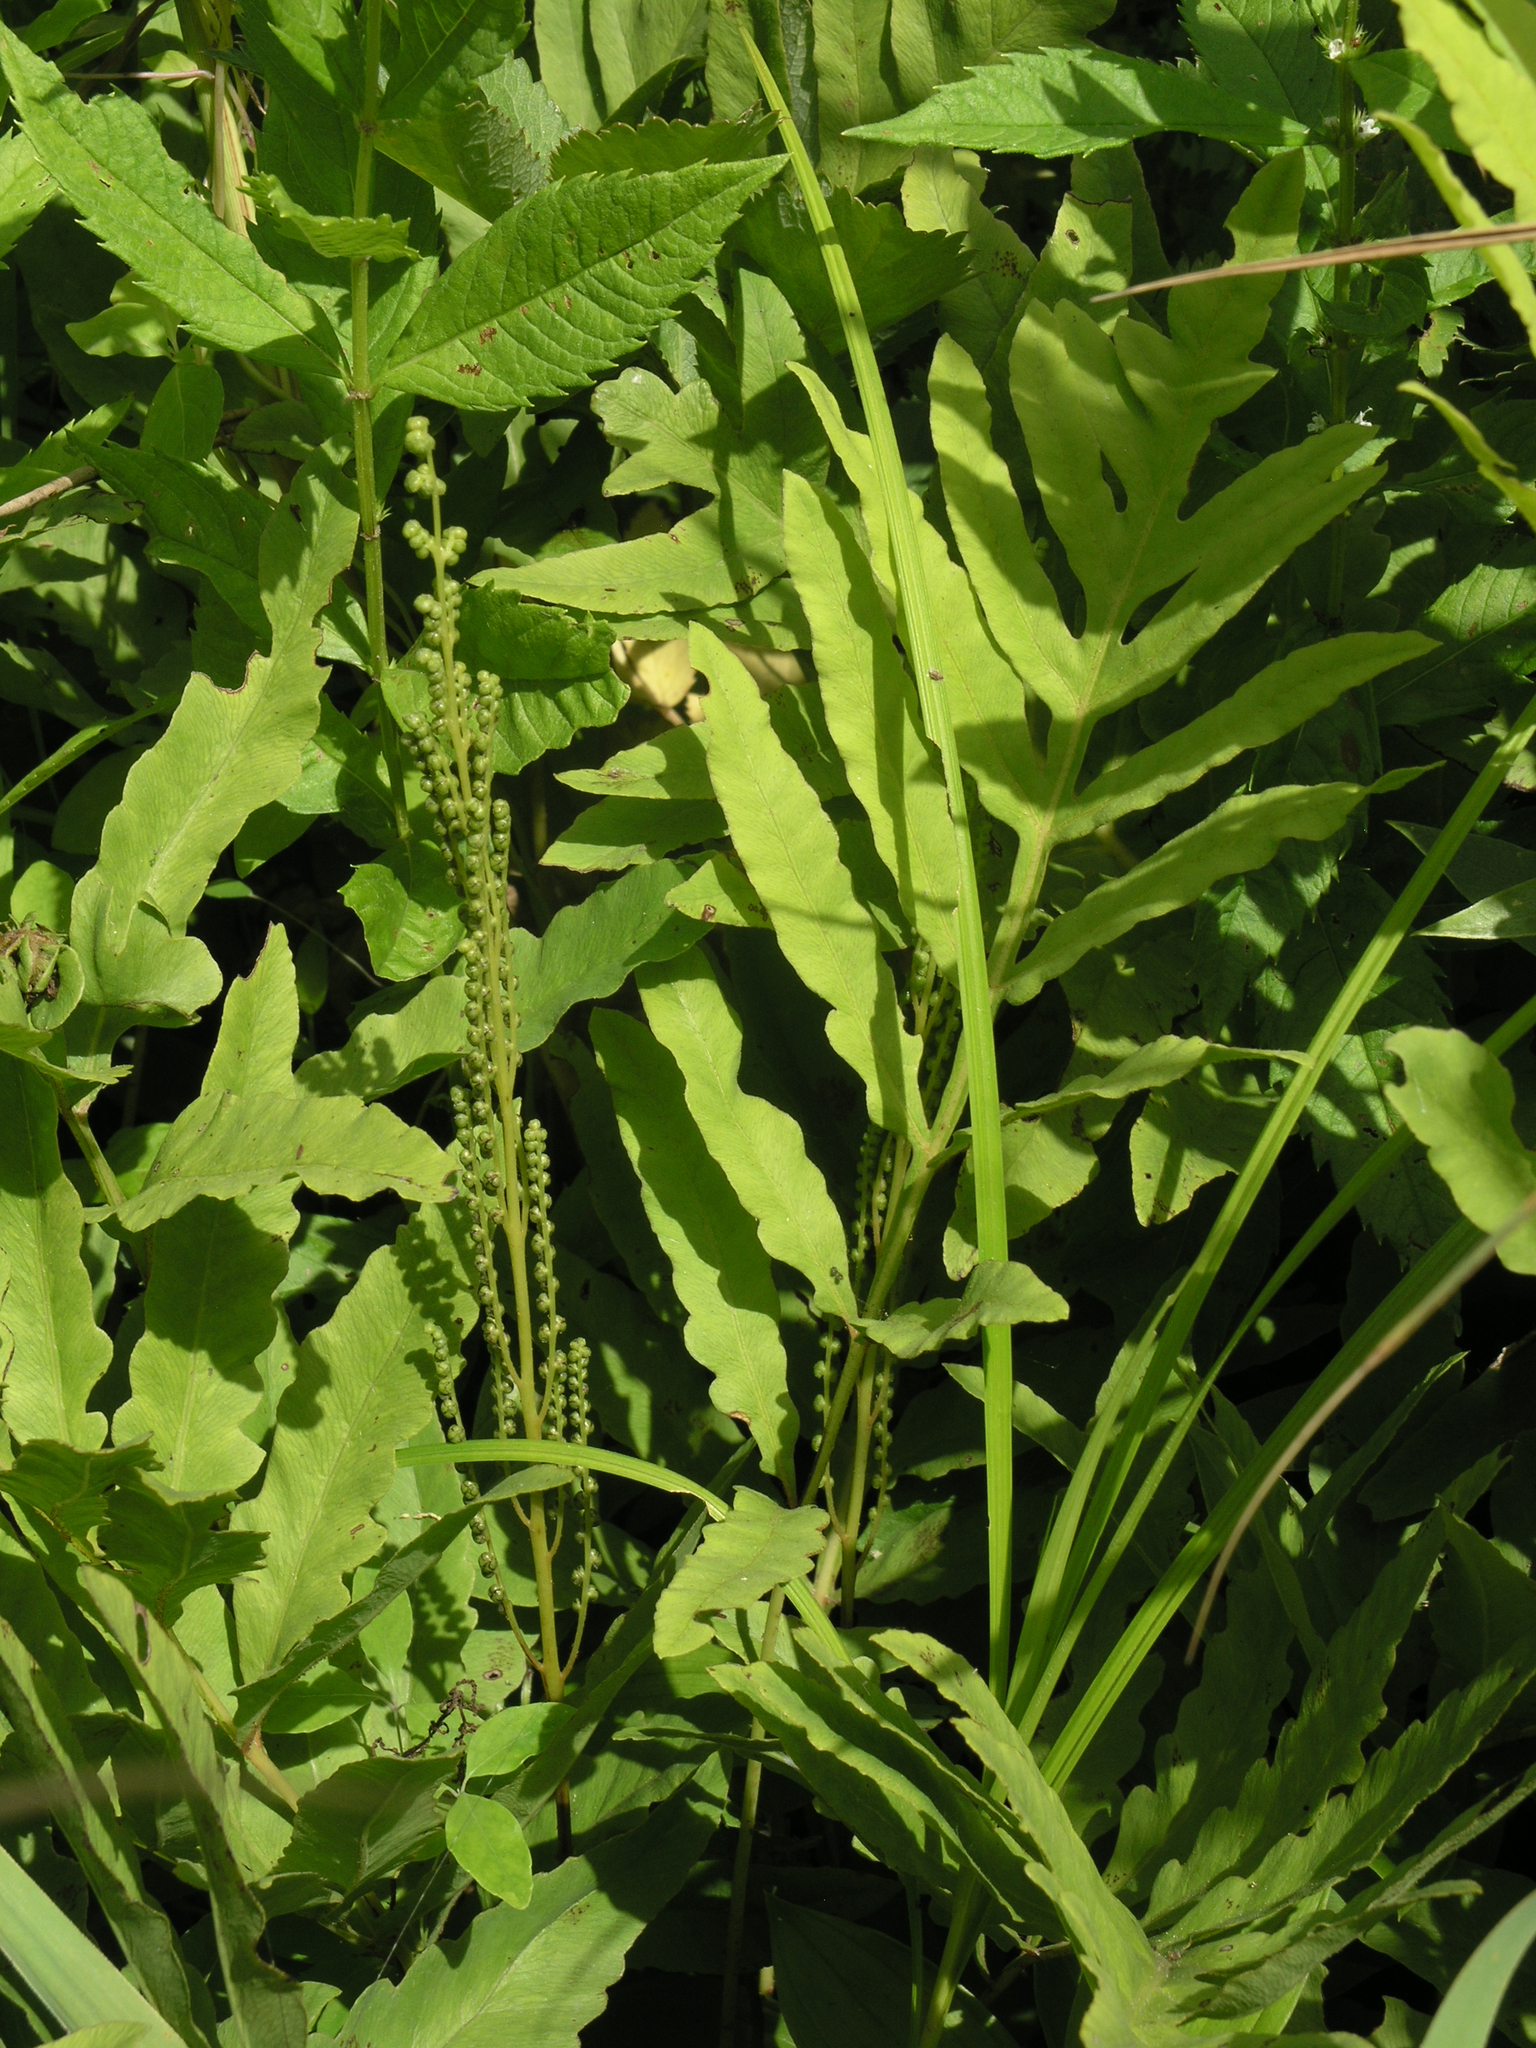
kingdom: Plantae
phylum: Tracheophyta
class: Polypodiopsida
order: Polypodiales
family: Onocleaceae
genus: Onoclea
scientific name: Onoclea sensibilis
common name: Sensitive fern
